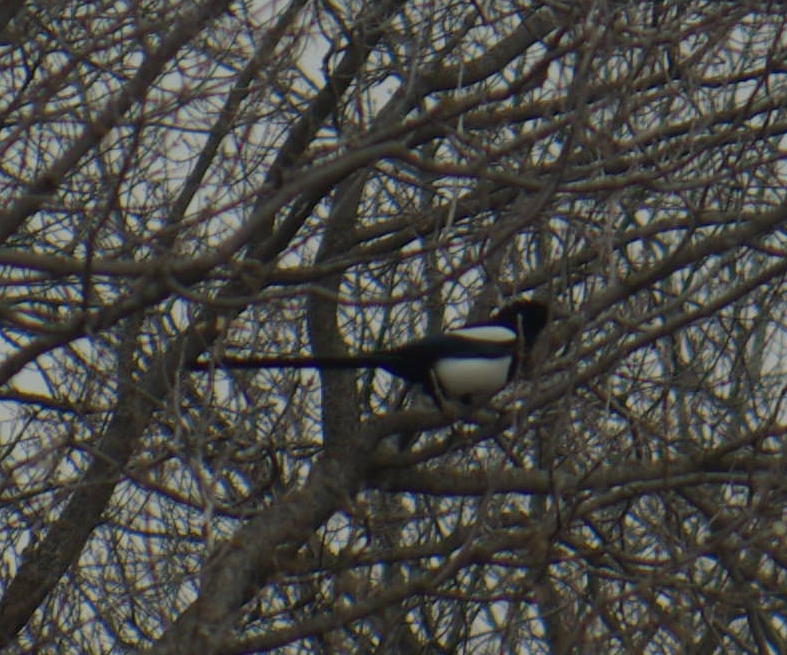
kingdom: Animalia
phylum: Chordata
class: Aves
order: Passeriformes
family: Corvidae
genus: Pica
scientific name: Pica hudsonia
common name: Black-billed magpie
